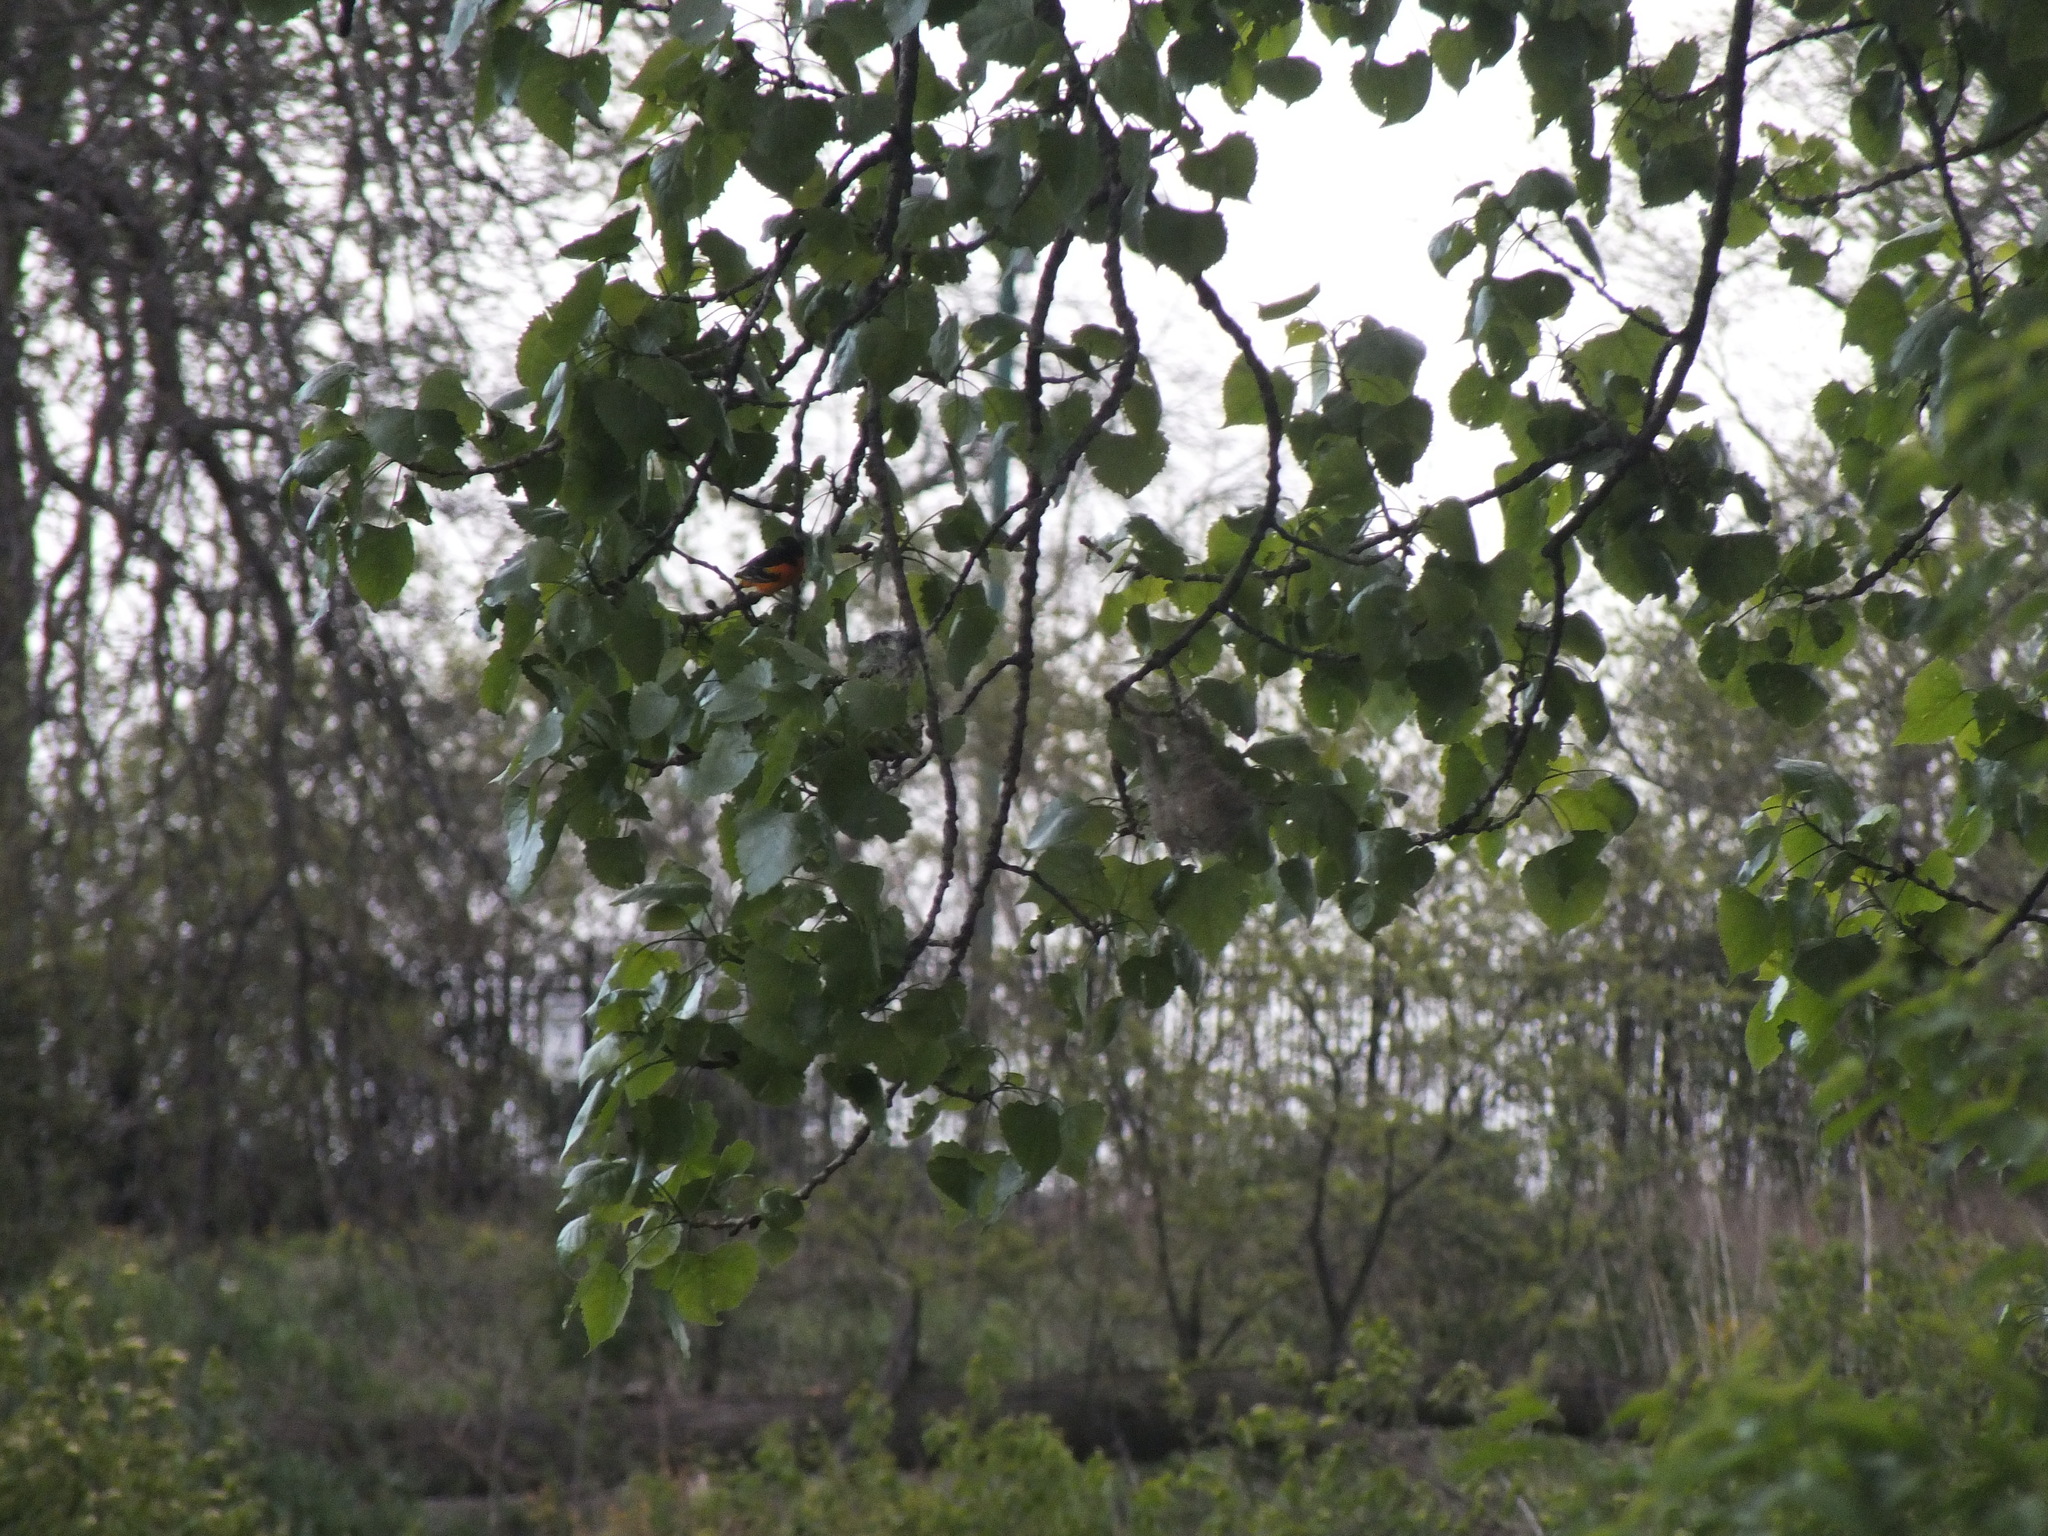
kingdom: Animalia
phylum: Chordata
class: Aves
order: Passeriformes
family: Icteridae
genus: Icterus
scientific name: Icterus galbula
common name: Baltimore oriole
